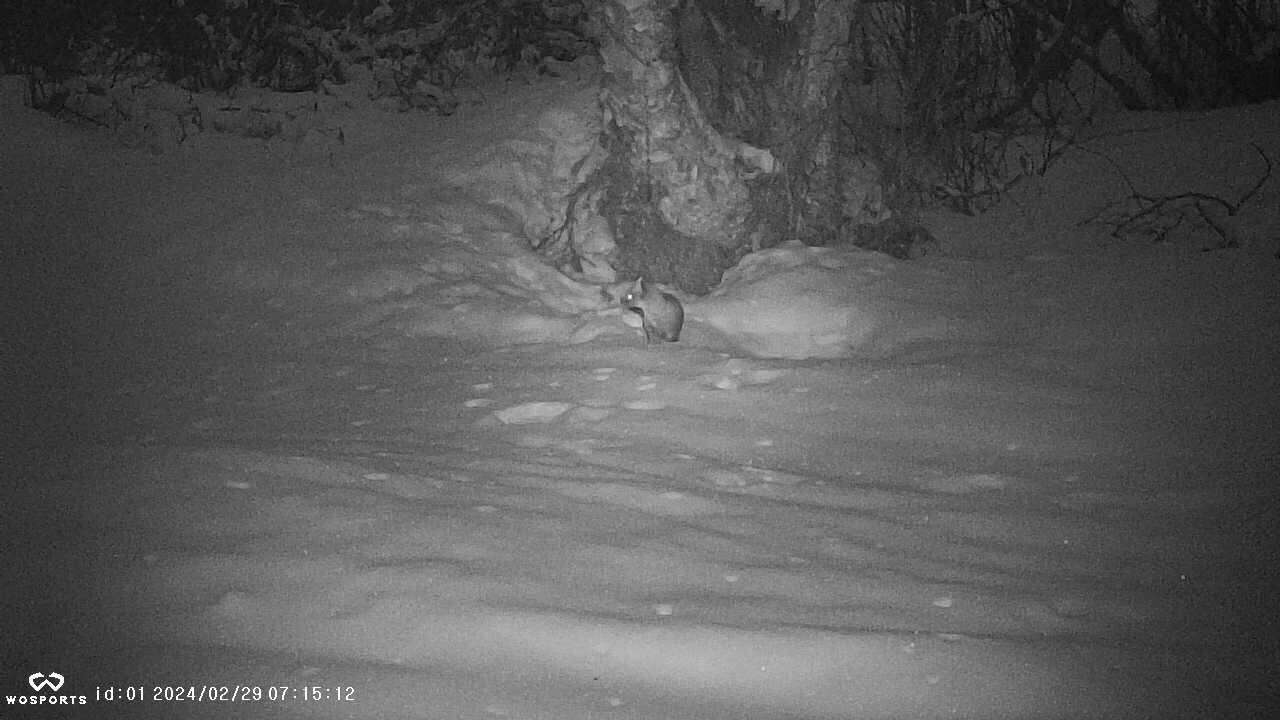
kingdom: Animalia
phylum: Chordata
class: Mammalia
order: Carnivora
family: Mustelidae
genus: Martes
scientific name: Martes americana
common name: American marten
